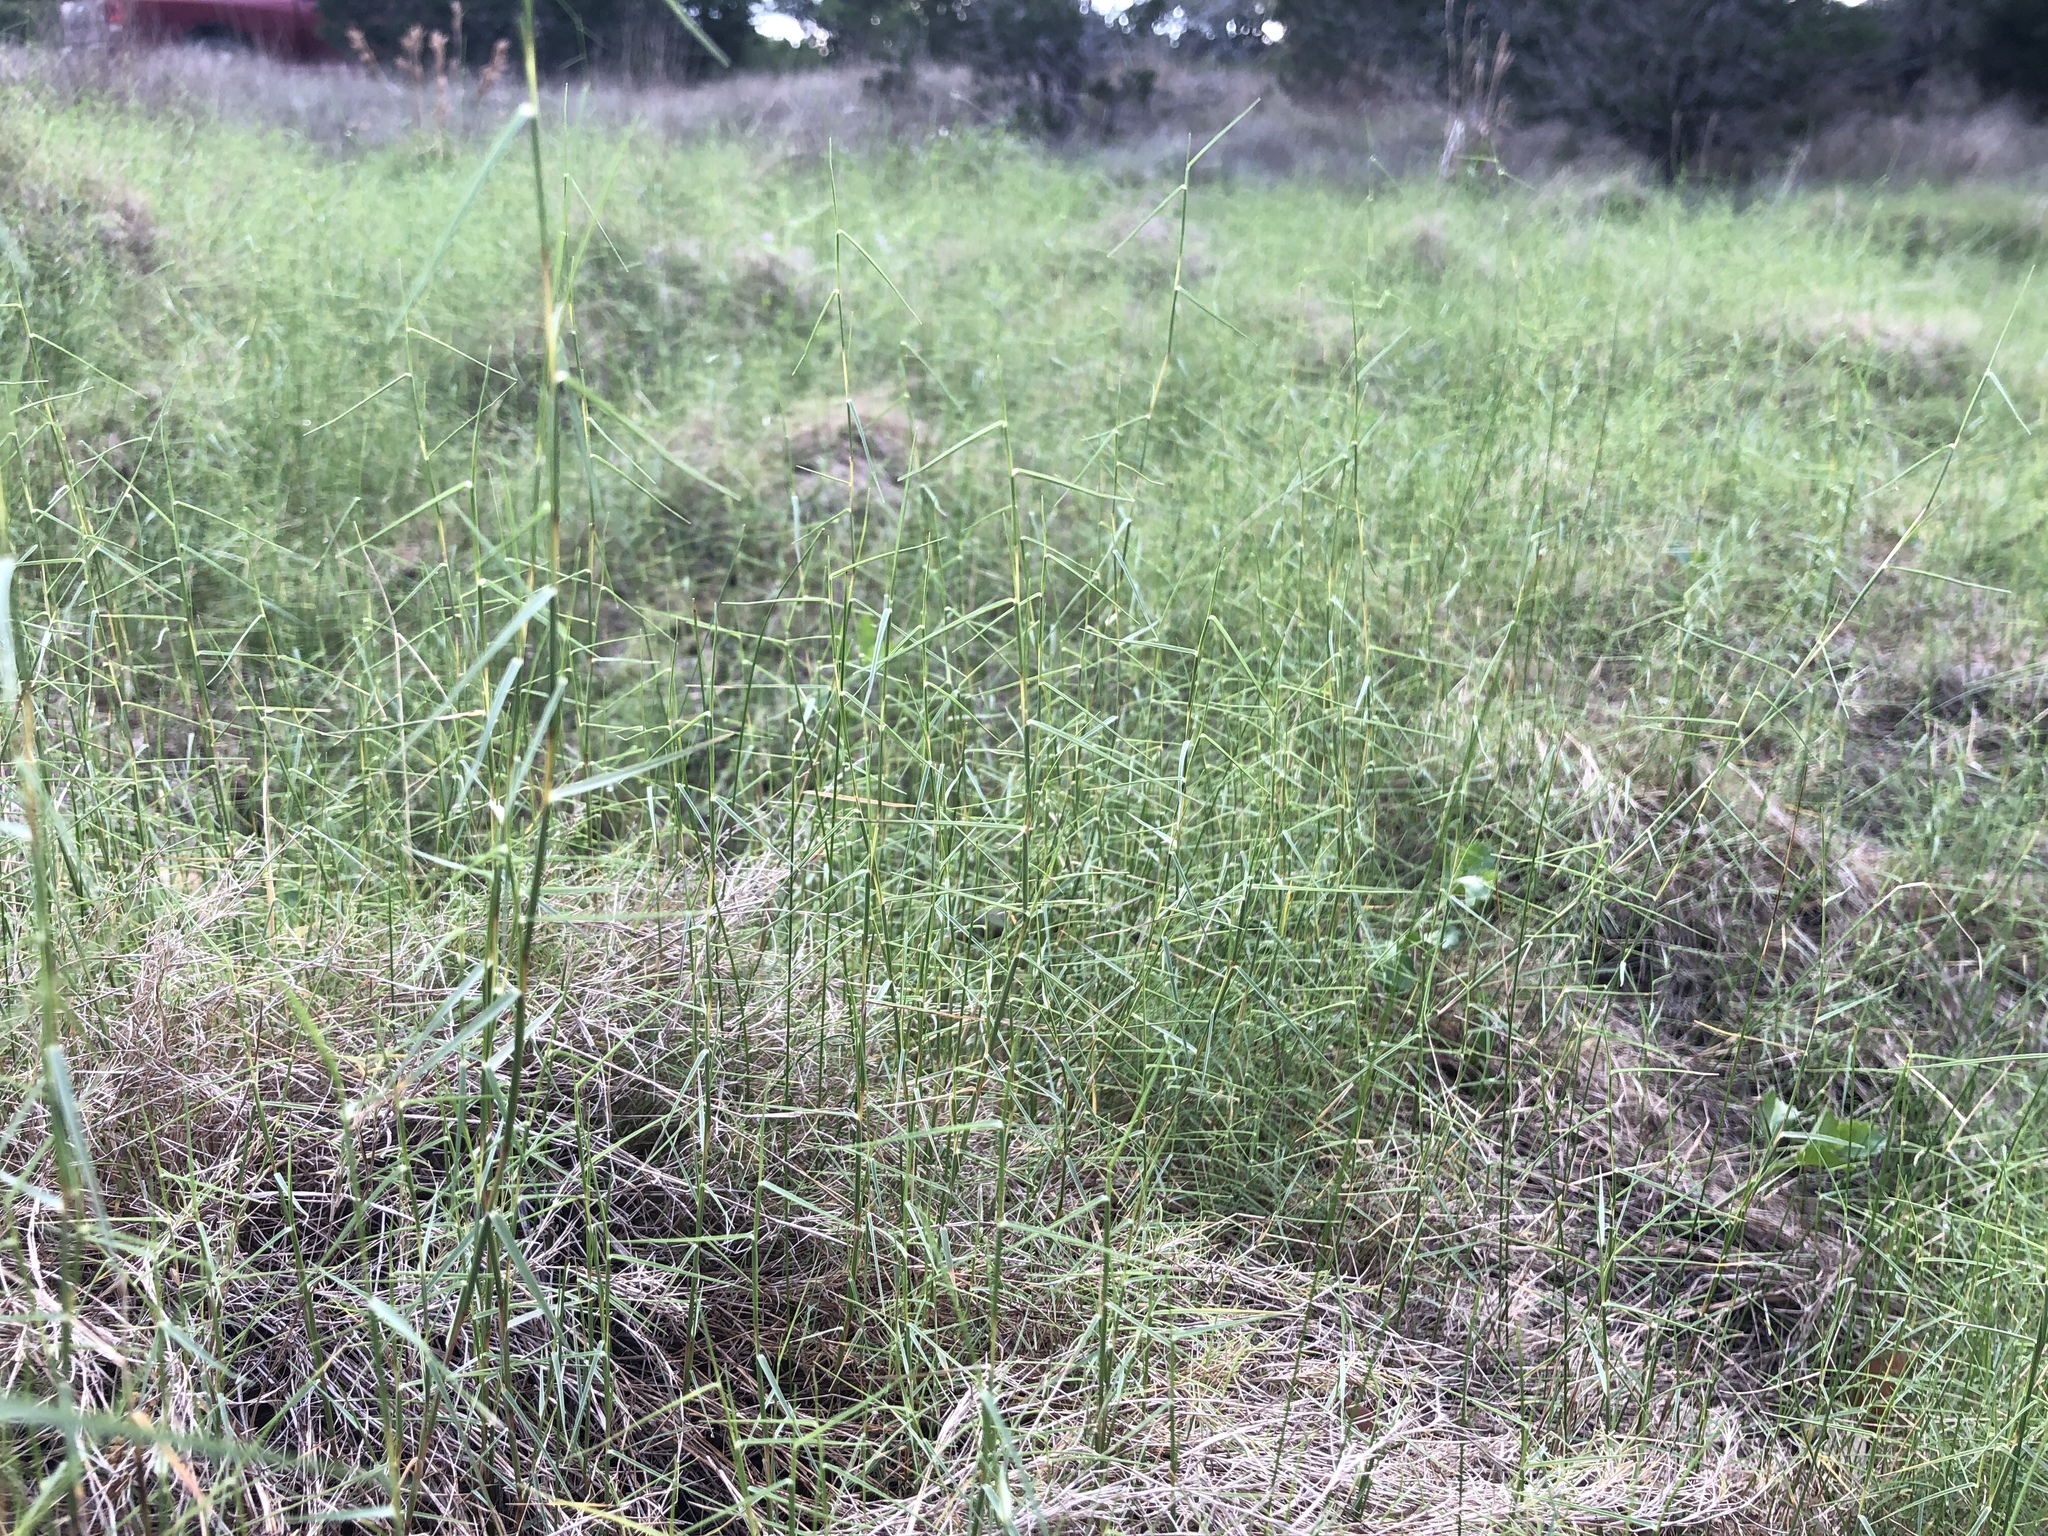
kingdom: Plantae
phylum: Tracheophyta
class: Liliopsida
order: Poales
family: Poaceae
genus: Muhlenbergia
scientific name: Muhlenbergia utilis
